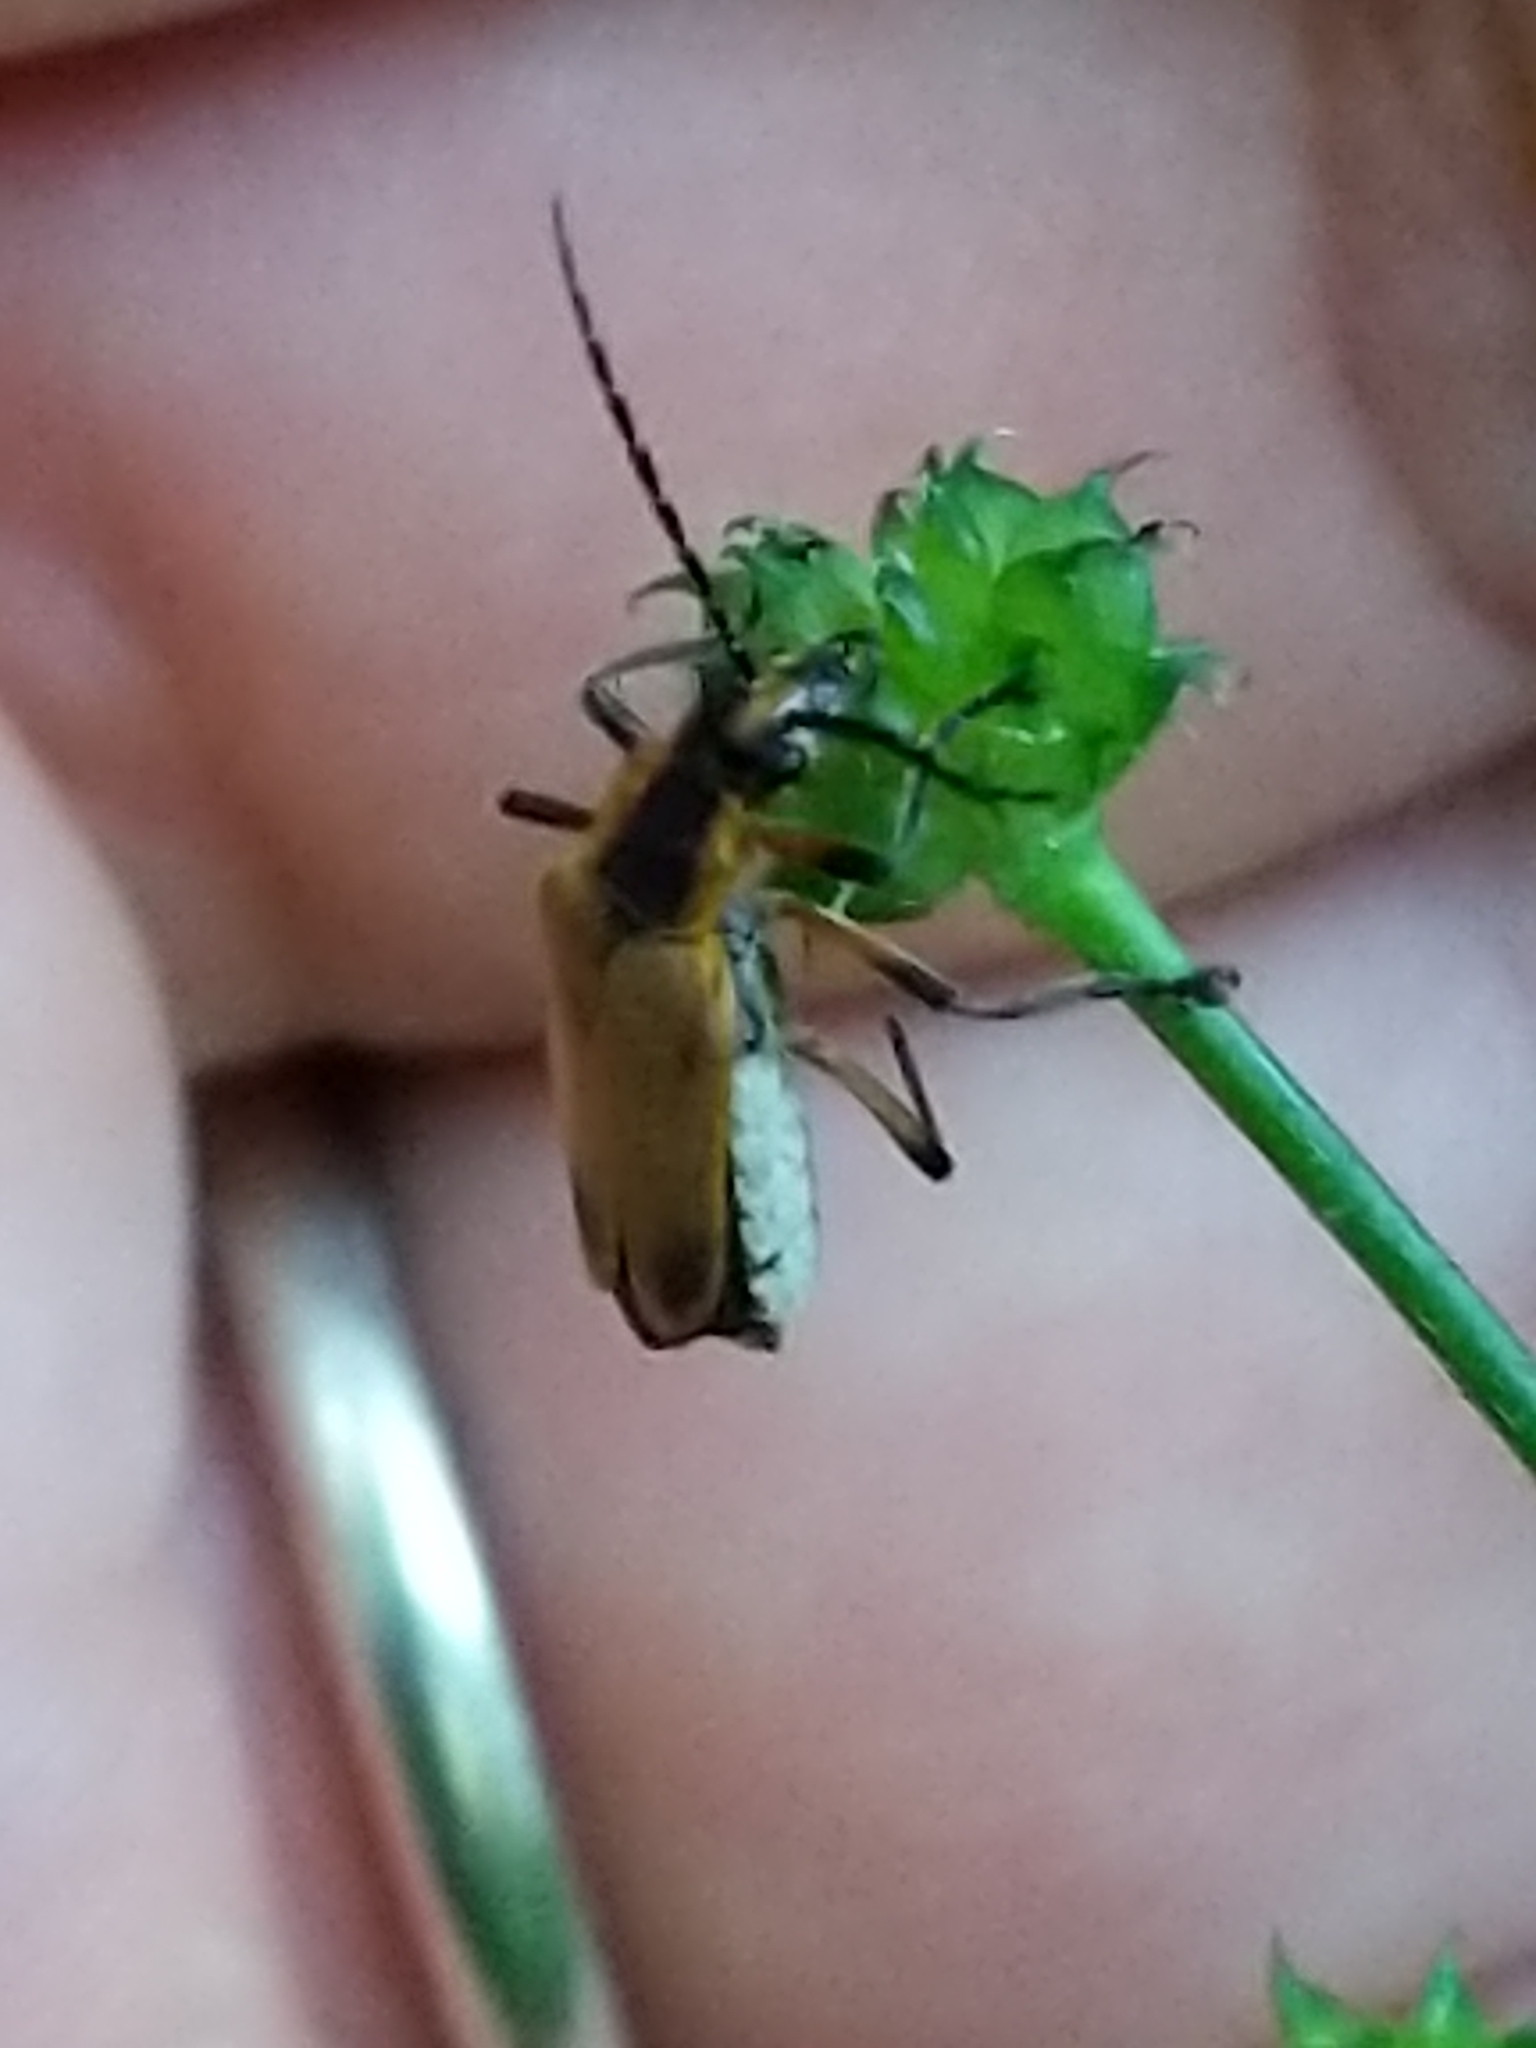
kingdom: Animalia
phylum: Arthropoda
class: Insecta
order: Coleoptera
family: Cantharidae
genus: Chauliognathus
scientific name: Chauliognathus marginatus
